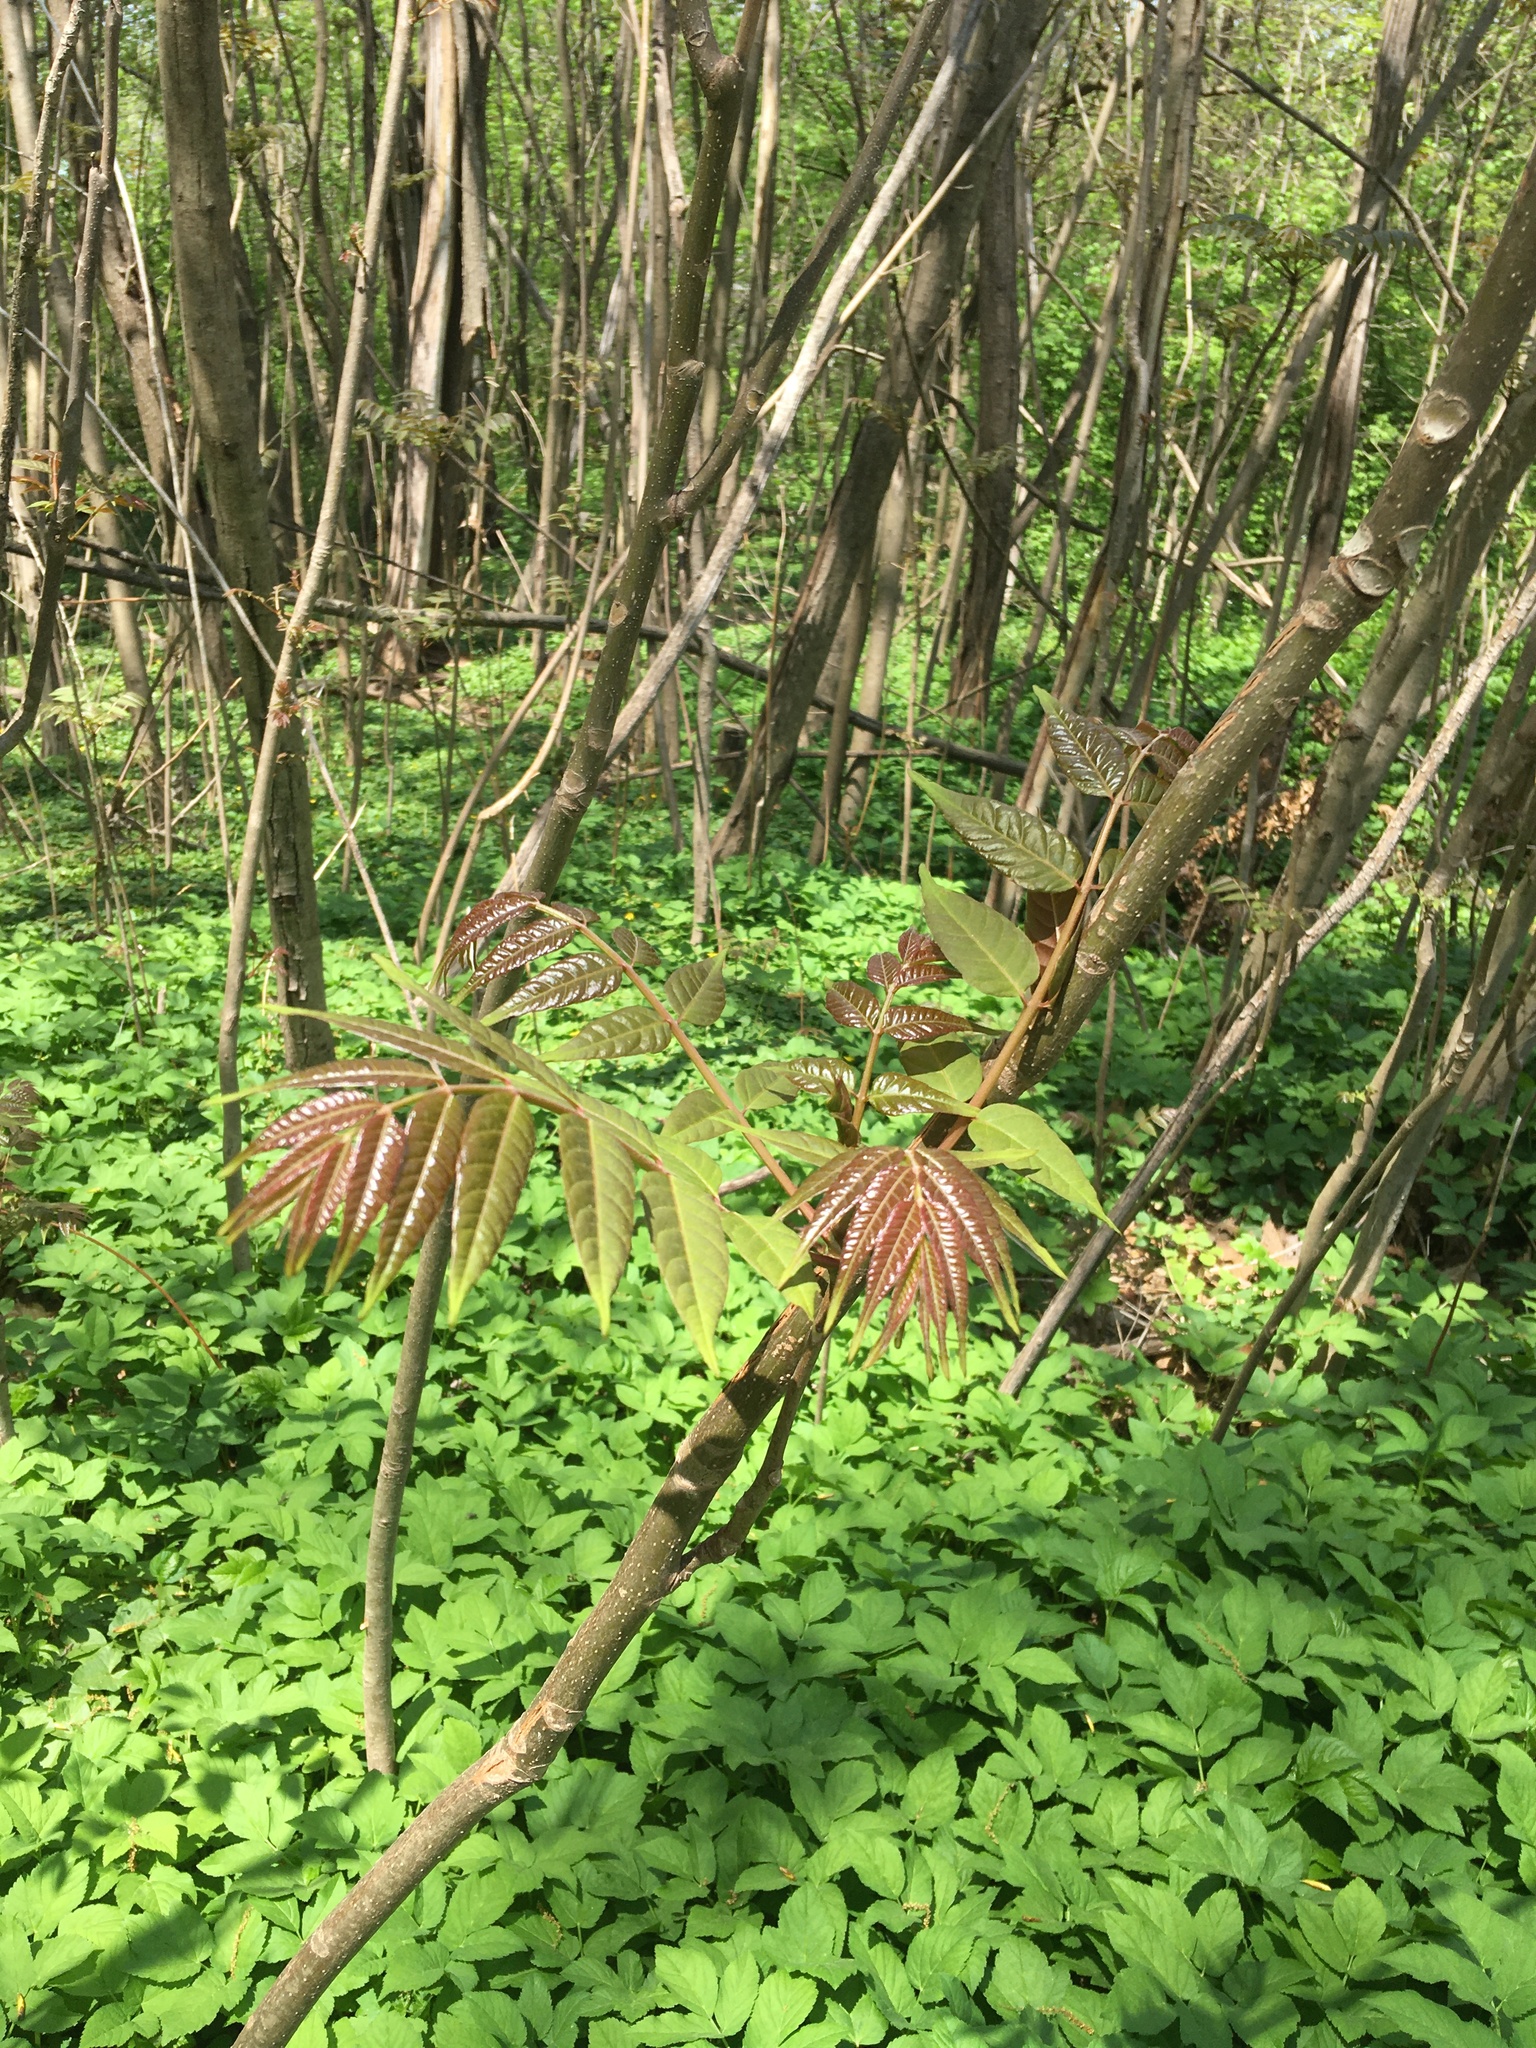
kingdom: Plantae
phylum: Tracheophyta
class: Magnoliopsida
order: Sapindales
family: Meliaceae
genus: Toona
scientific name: Toona sinensis
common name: Red toon
